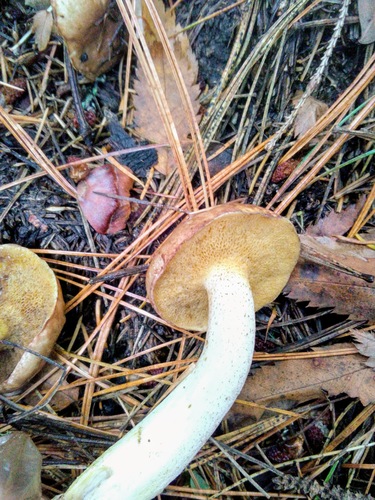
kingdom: Fungi
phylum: Basidiomycota
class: Agaricomycetes
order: Boletales
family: Suillaceae
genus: Suillus
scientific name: Suillus placidus
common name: Slippery white bolete
